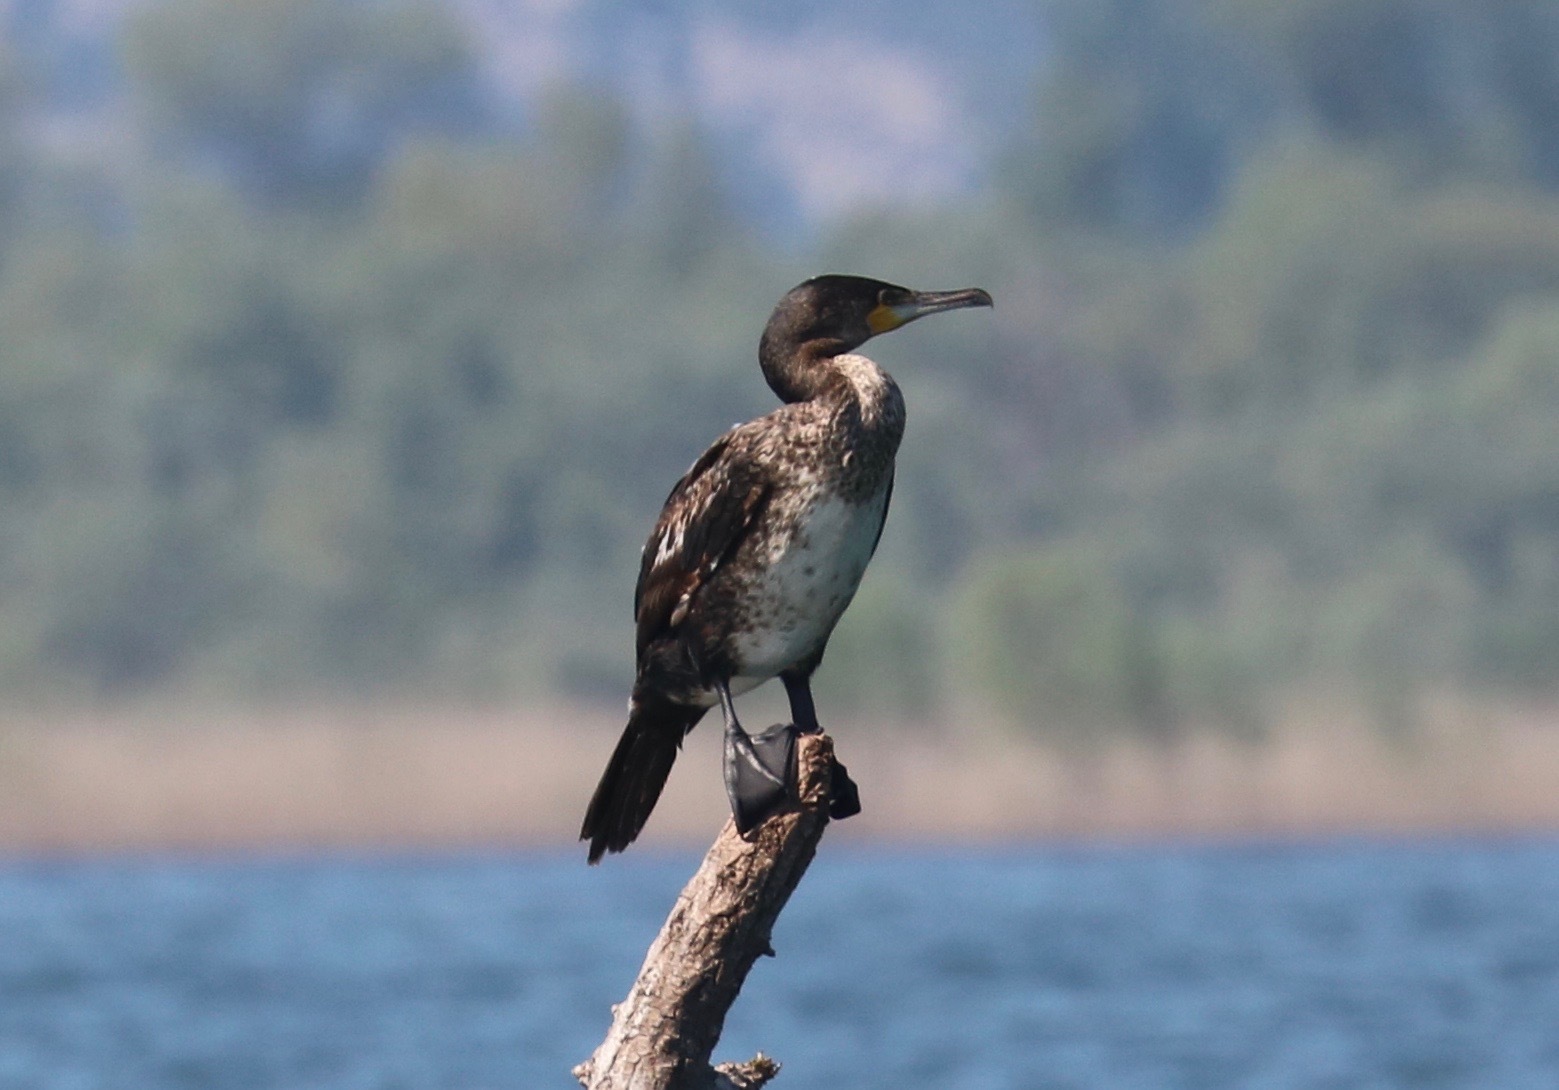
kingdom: Animalia
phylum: Chordata
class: Aves
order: Suliformes
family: Phalacrocoracidae
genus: Phalacrocorax
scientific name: Phalacrocorax carbo
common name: Great cormorant
